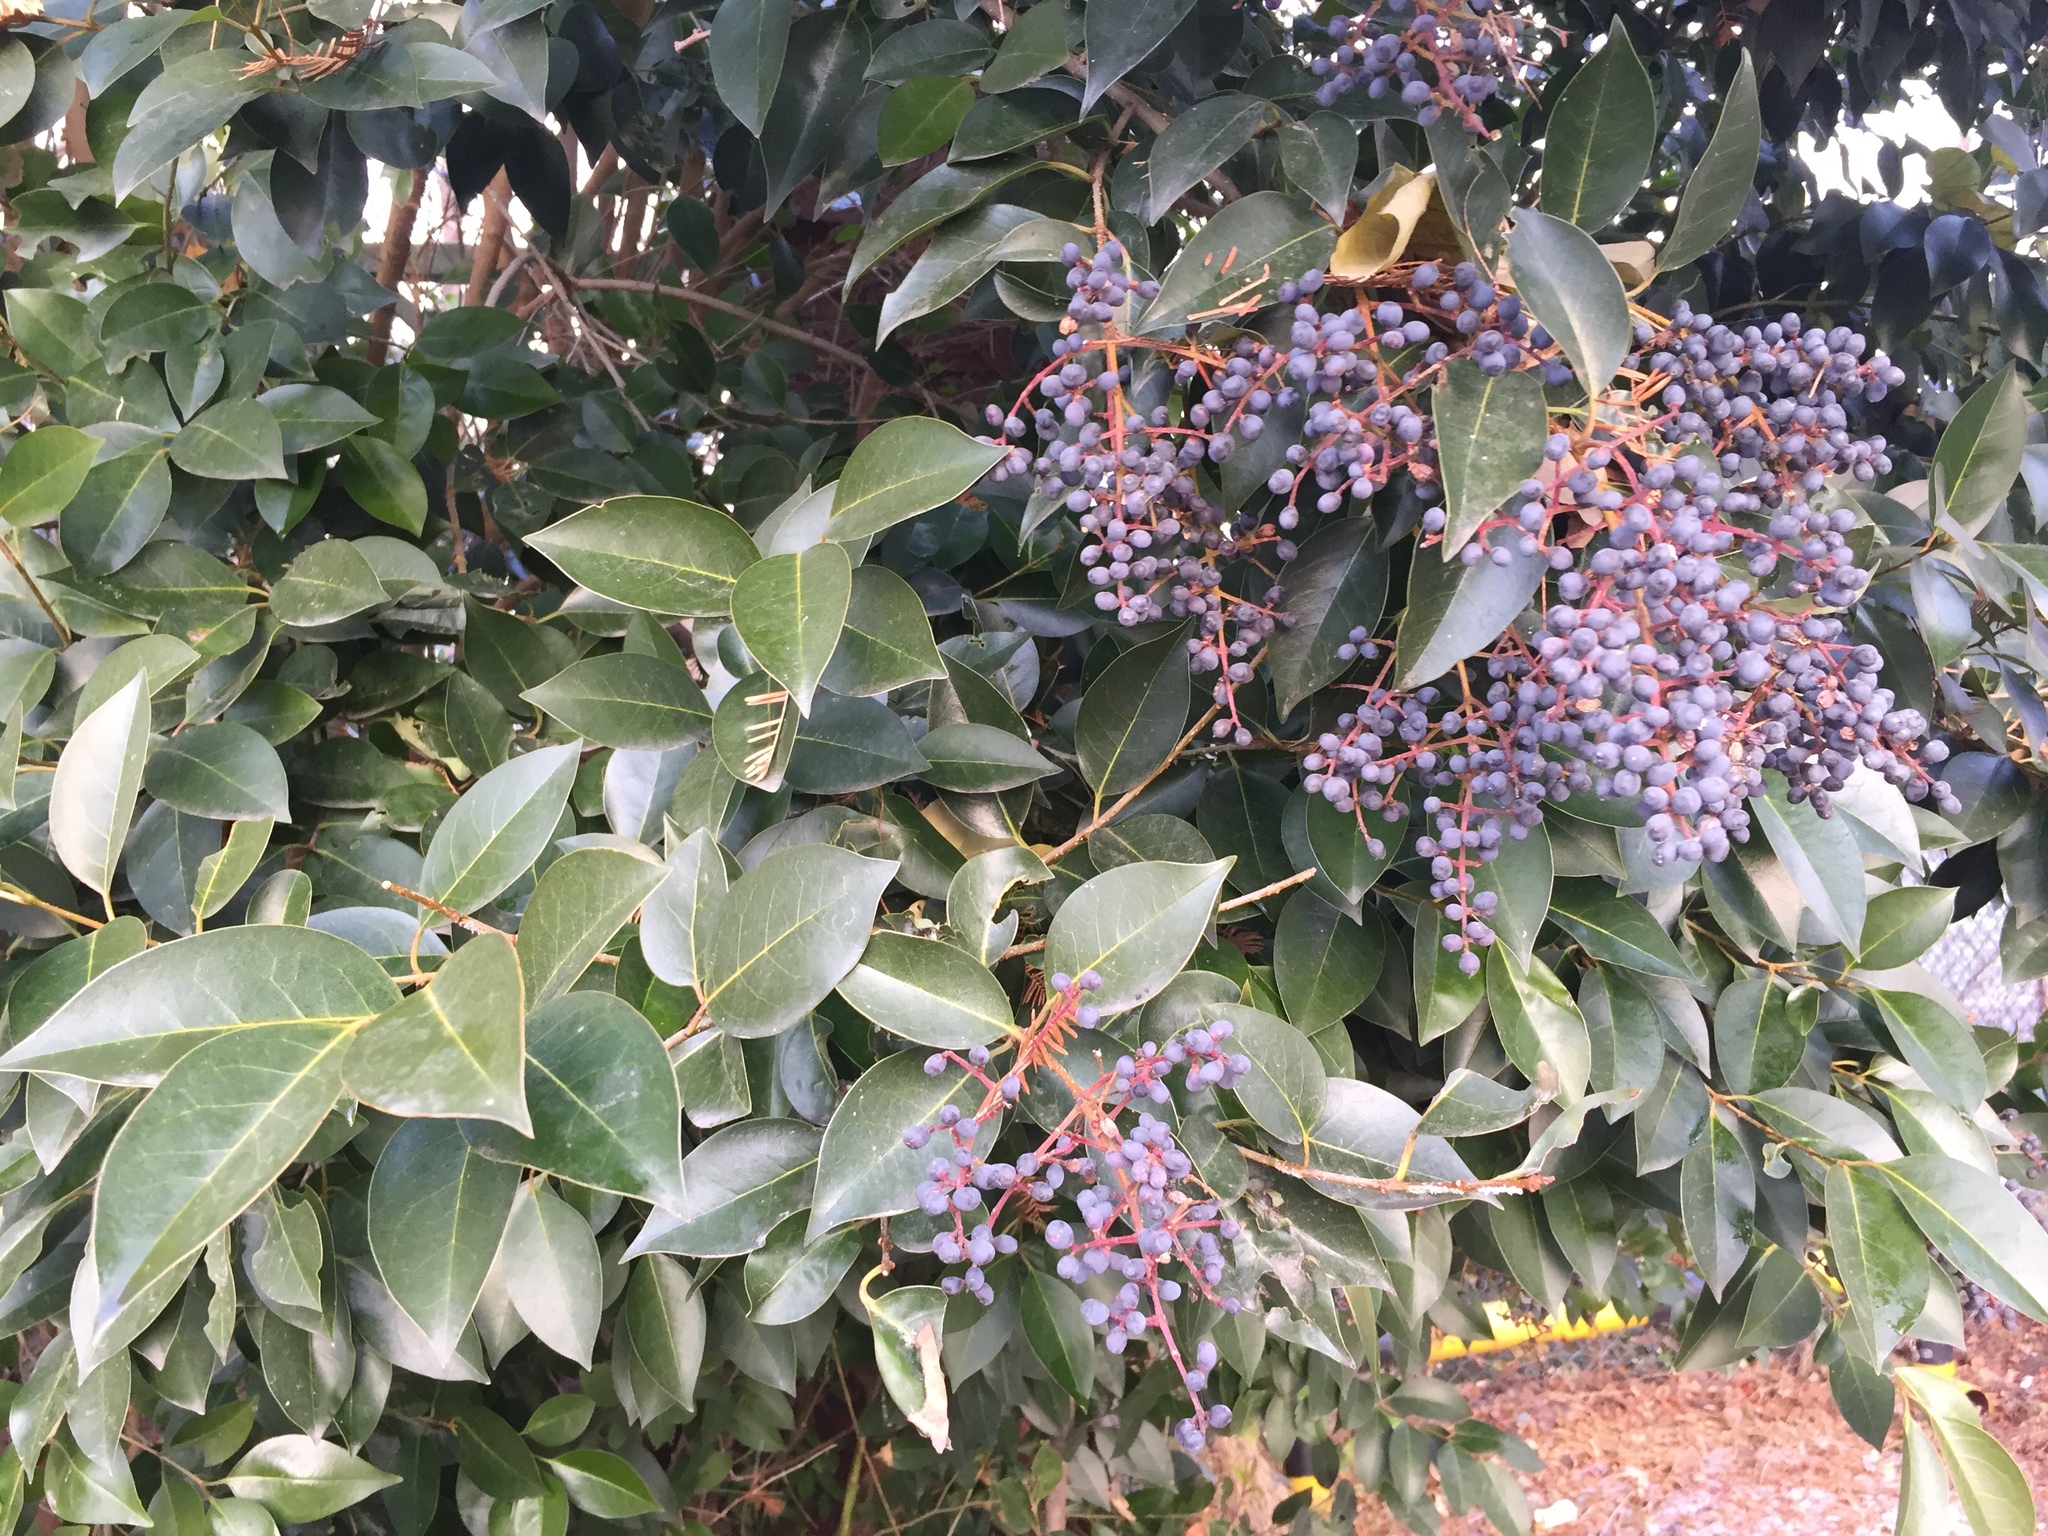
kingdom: Plantae
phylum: Tracheophyta
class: Magnoliopsida
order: Lamiales
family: Oleaceae
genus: Ligustrum
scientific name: Ligustrum lucidum
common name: Glossy privet
